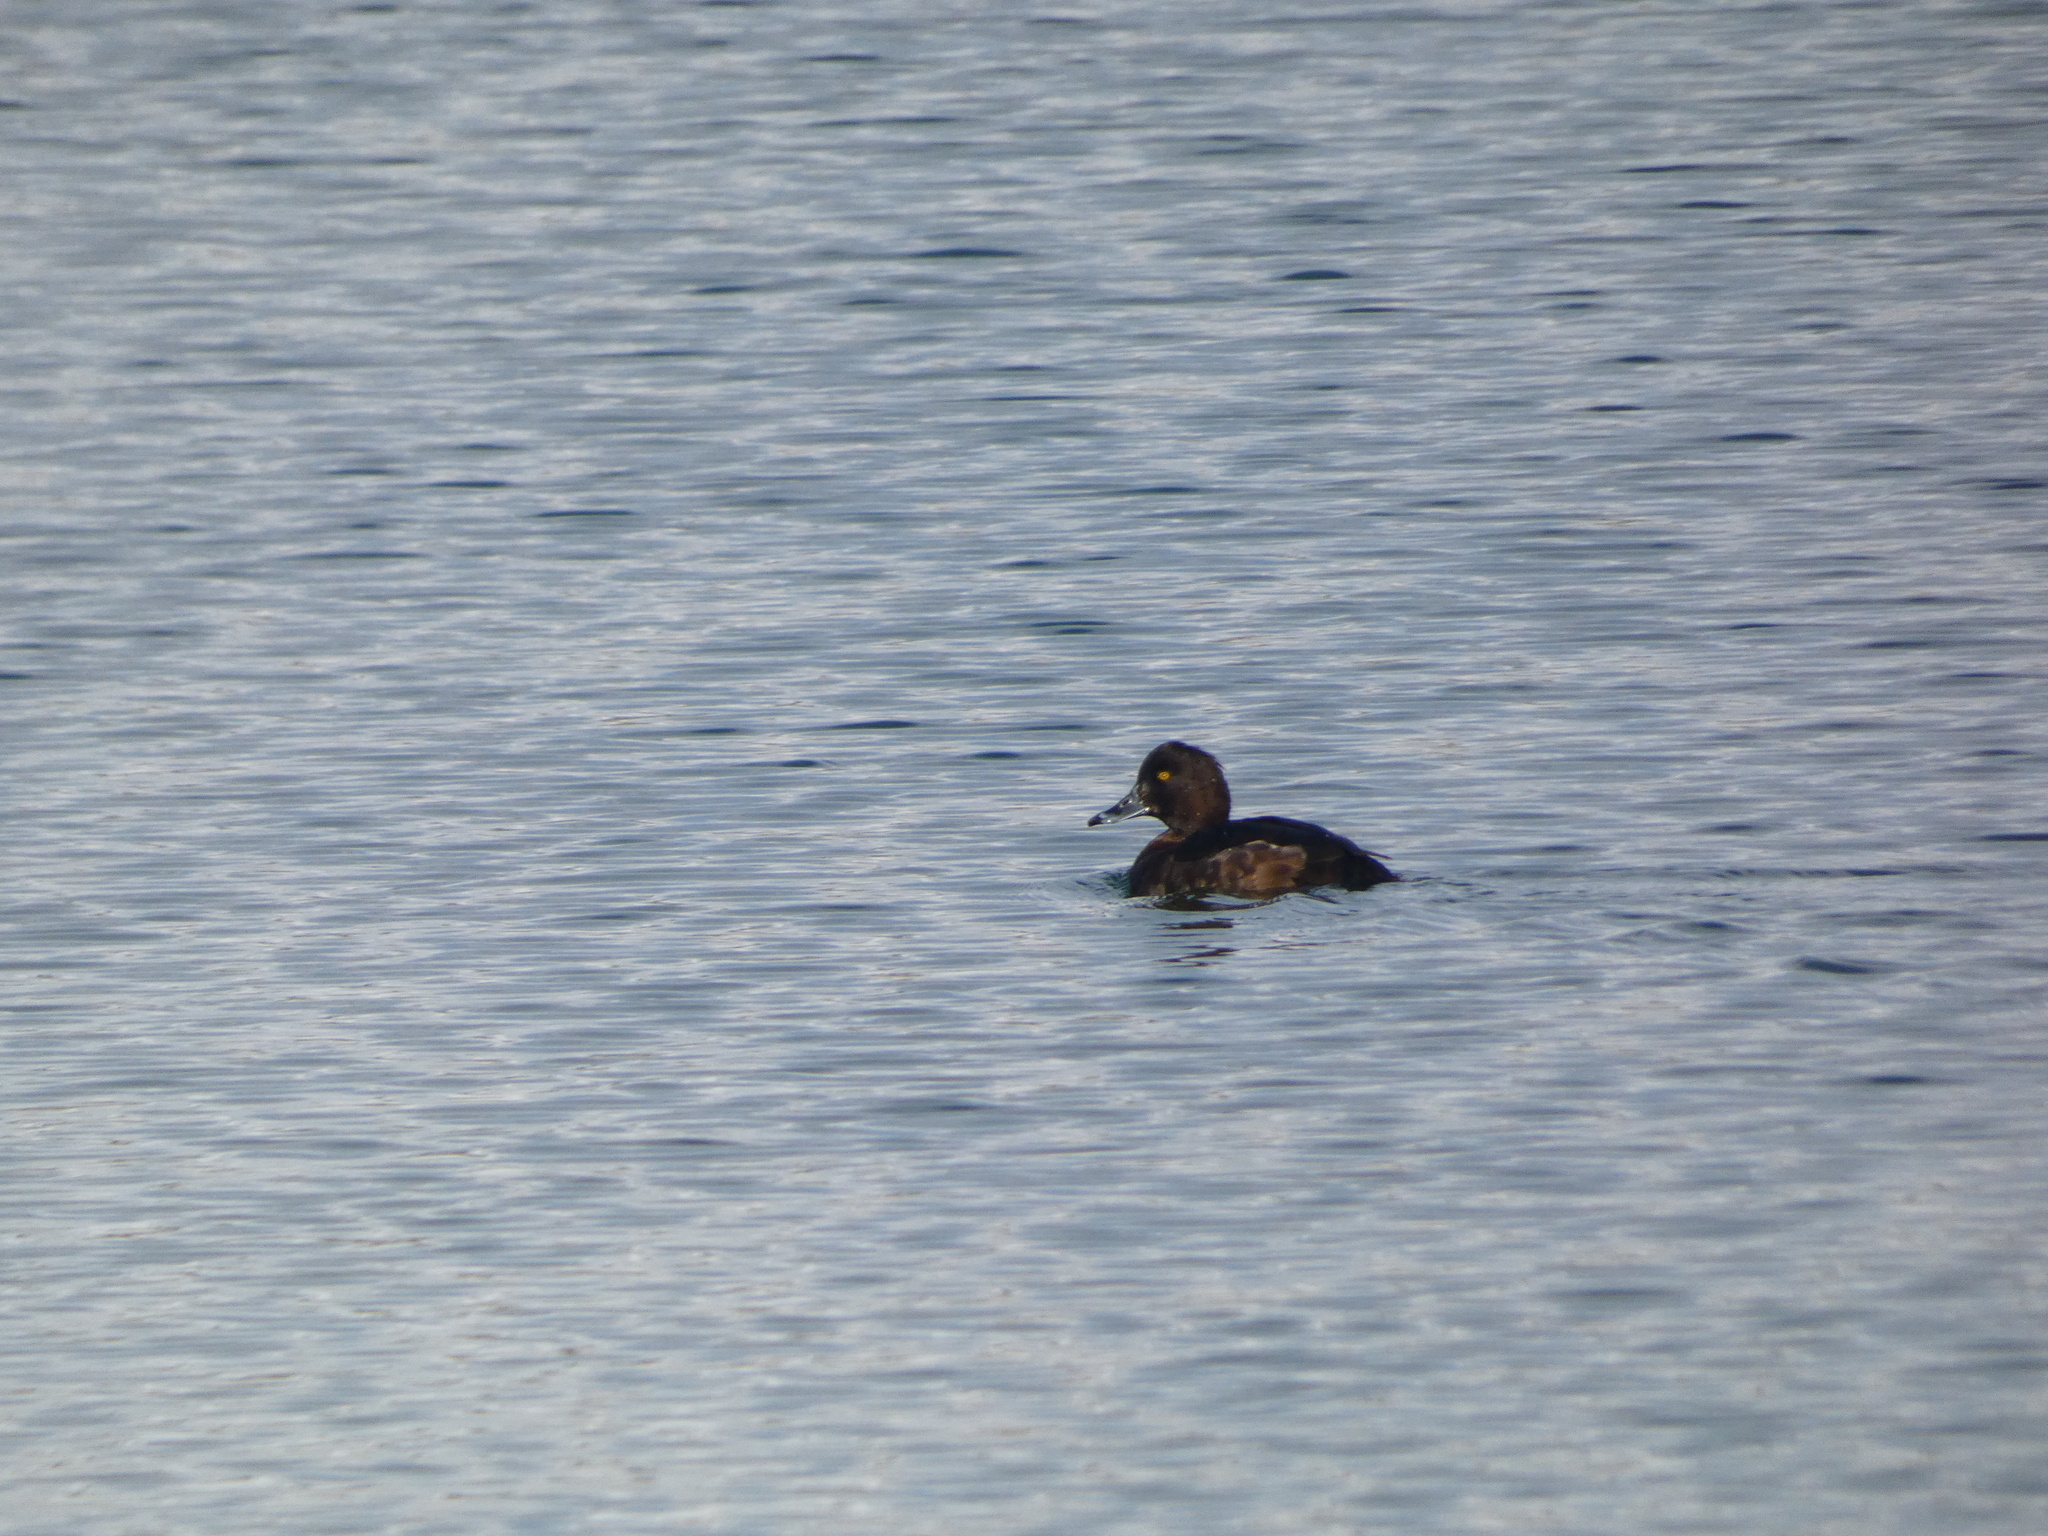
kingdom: Animalia
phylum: Chordata
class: Aves
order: Anseriformes
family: Anatidae
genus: Aythya
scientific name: Aythya fuligula
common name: Tufted duck
